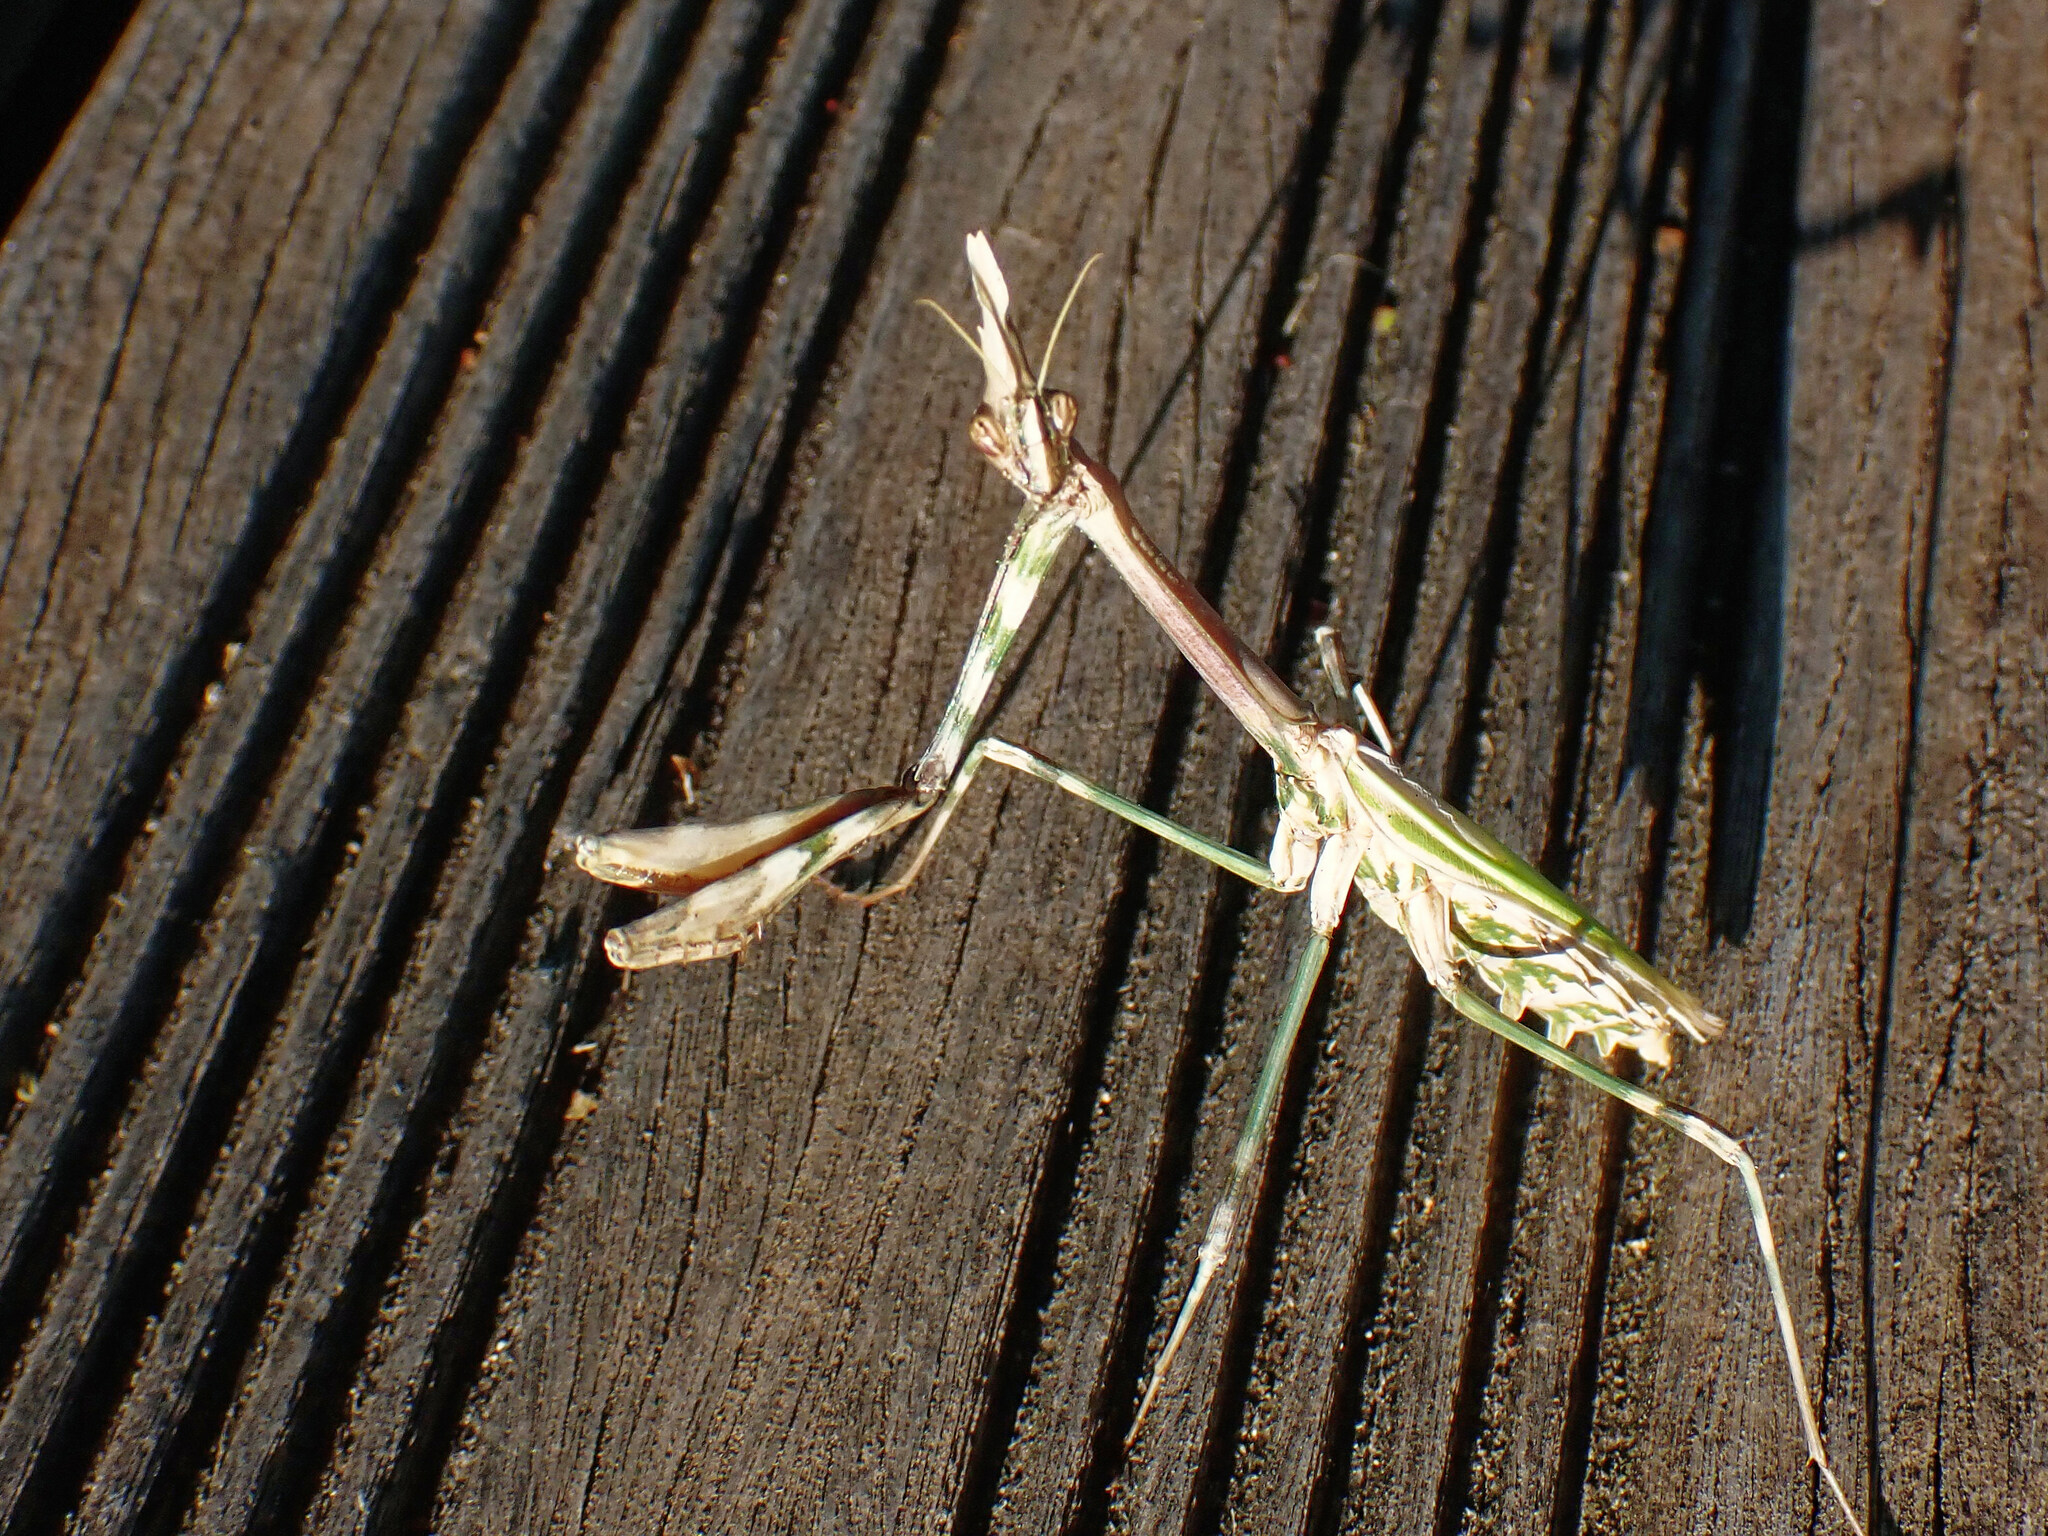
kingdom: Animalia
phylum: Arthropoda
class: Insecta
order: Mantodea
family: Empusidae
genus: Empusa
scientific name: Empusa pennata
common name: Conehead mantis
